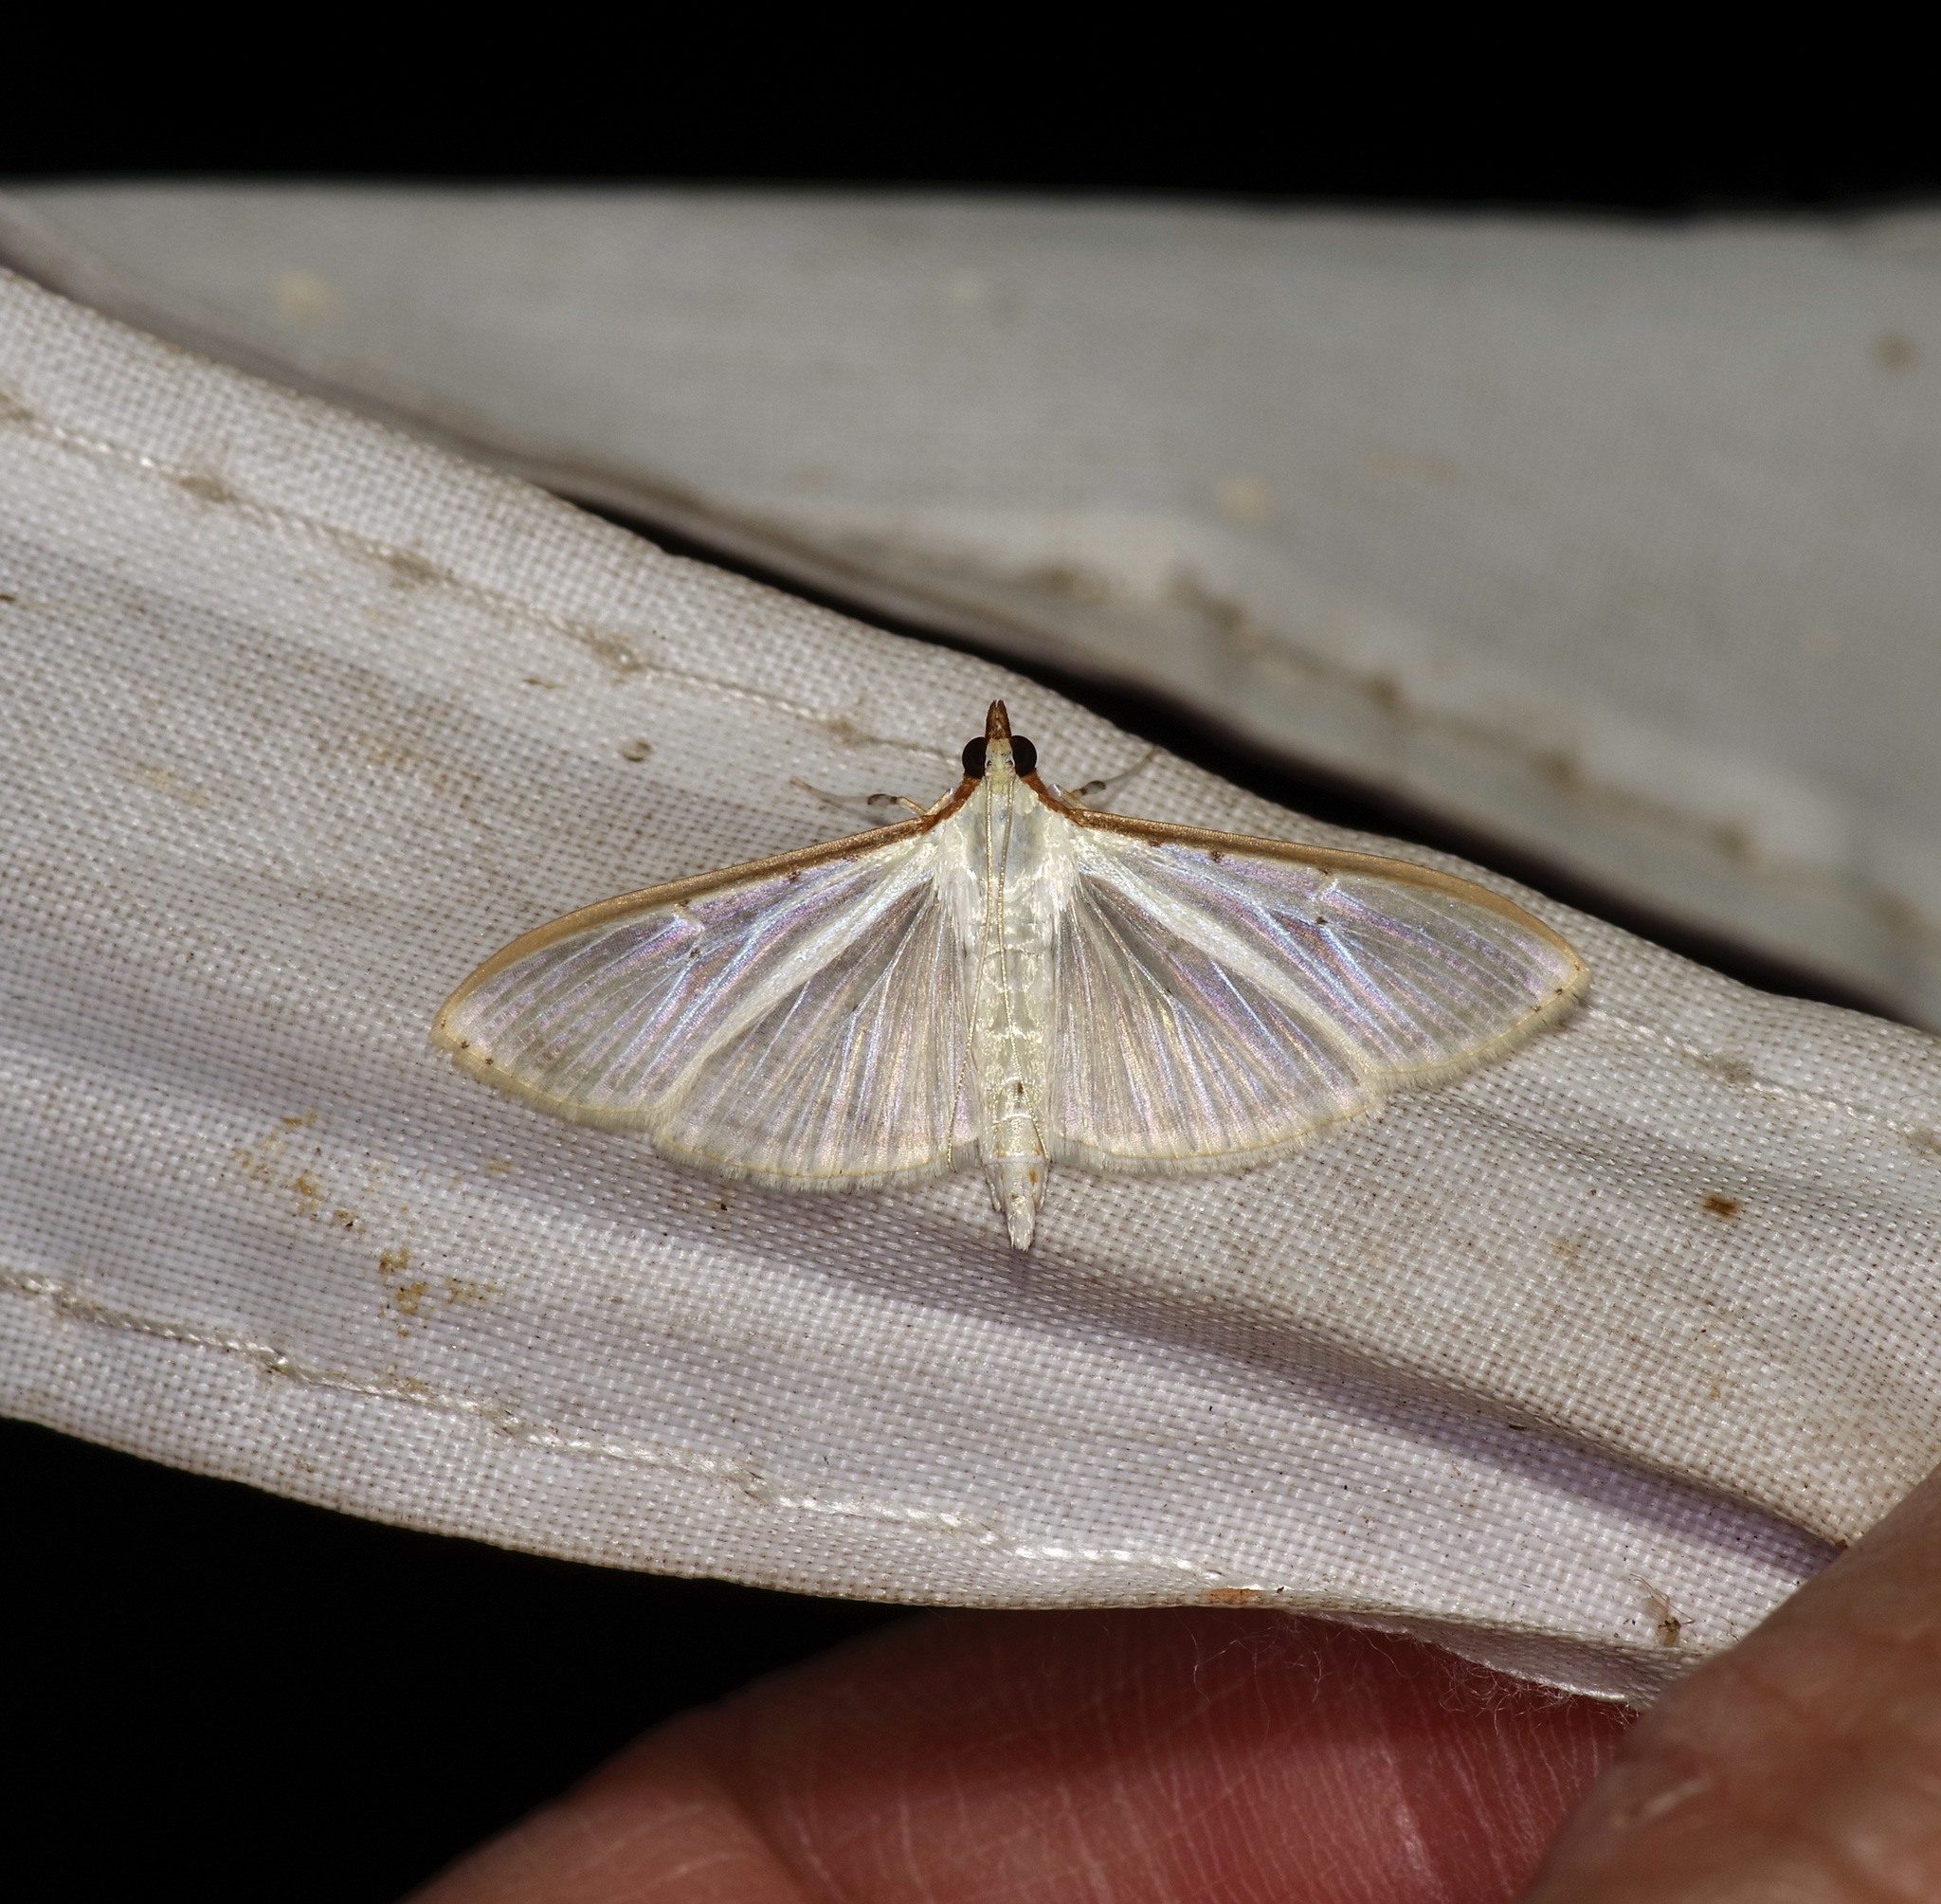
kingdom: Animalia
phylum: Arthropoda
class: Insecta
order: Lepidoptera
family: Crambidae
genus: Palpita
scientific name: Palpita quadristigmalis
